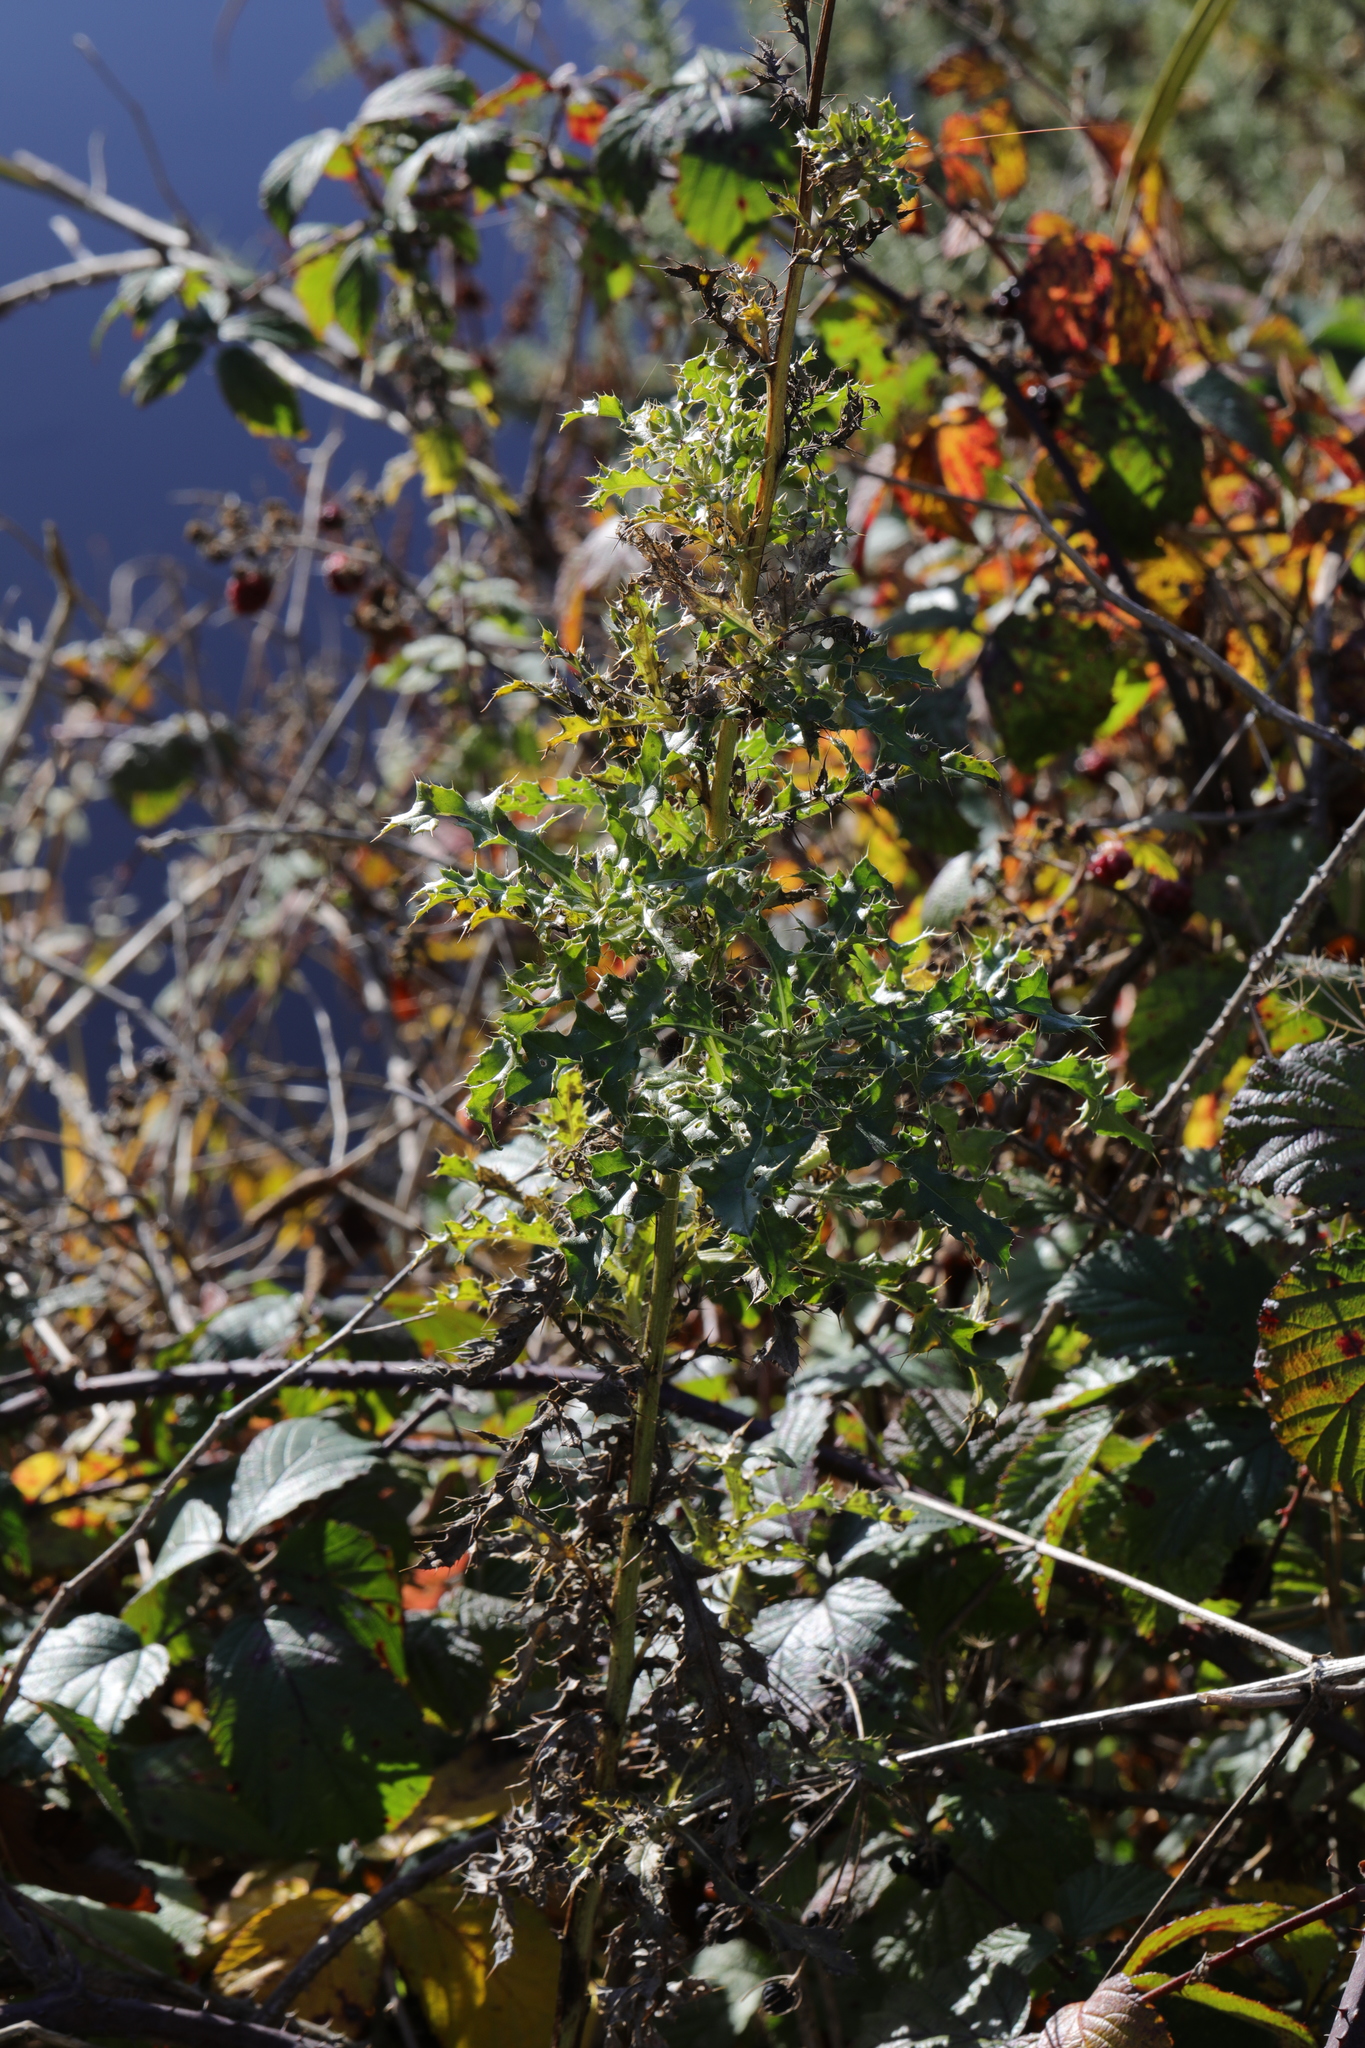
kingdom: Plantae
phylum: Tracheophyta
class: Magnoliopsida
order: Asterales
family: Asteraceae
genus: Cirsium
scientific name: Cirsium arvense
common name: Creeping thistle
